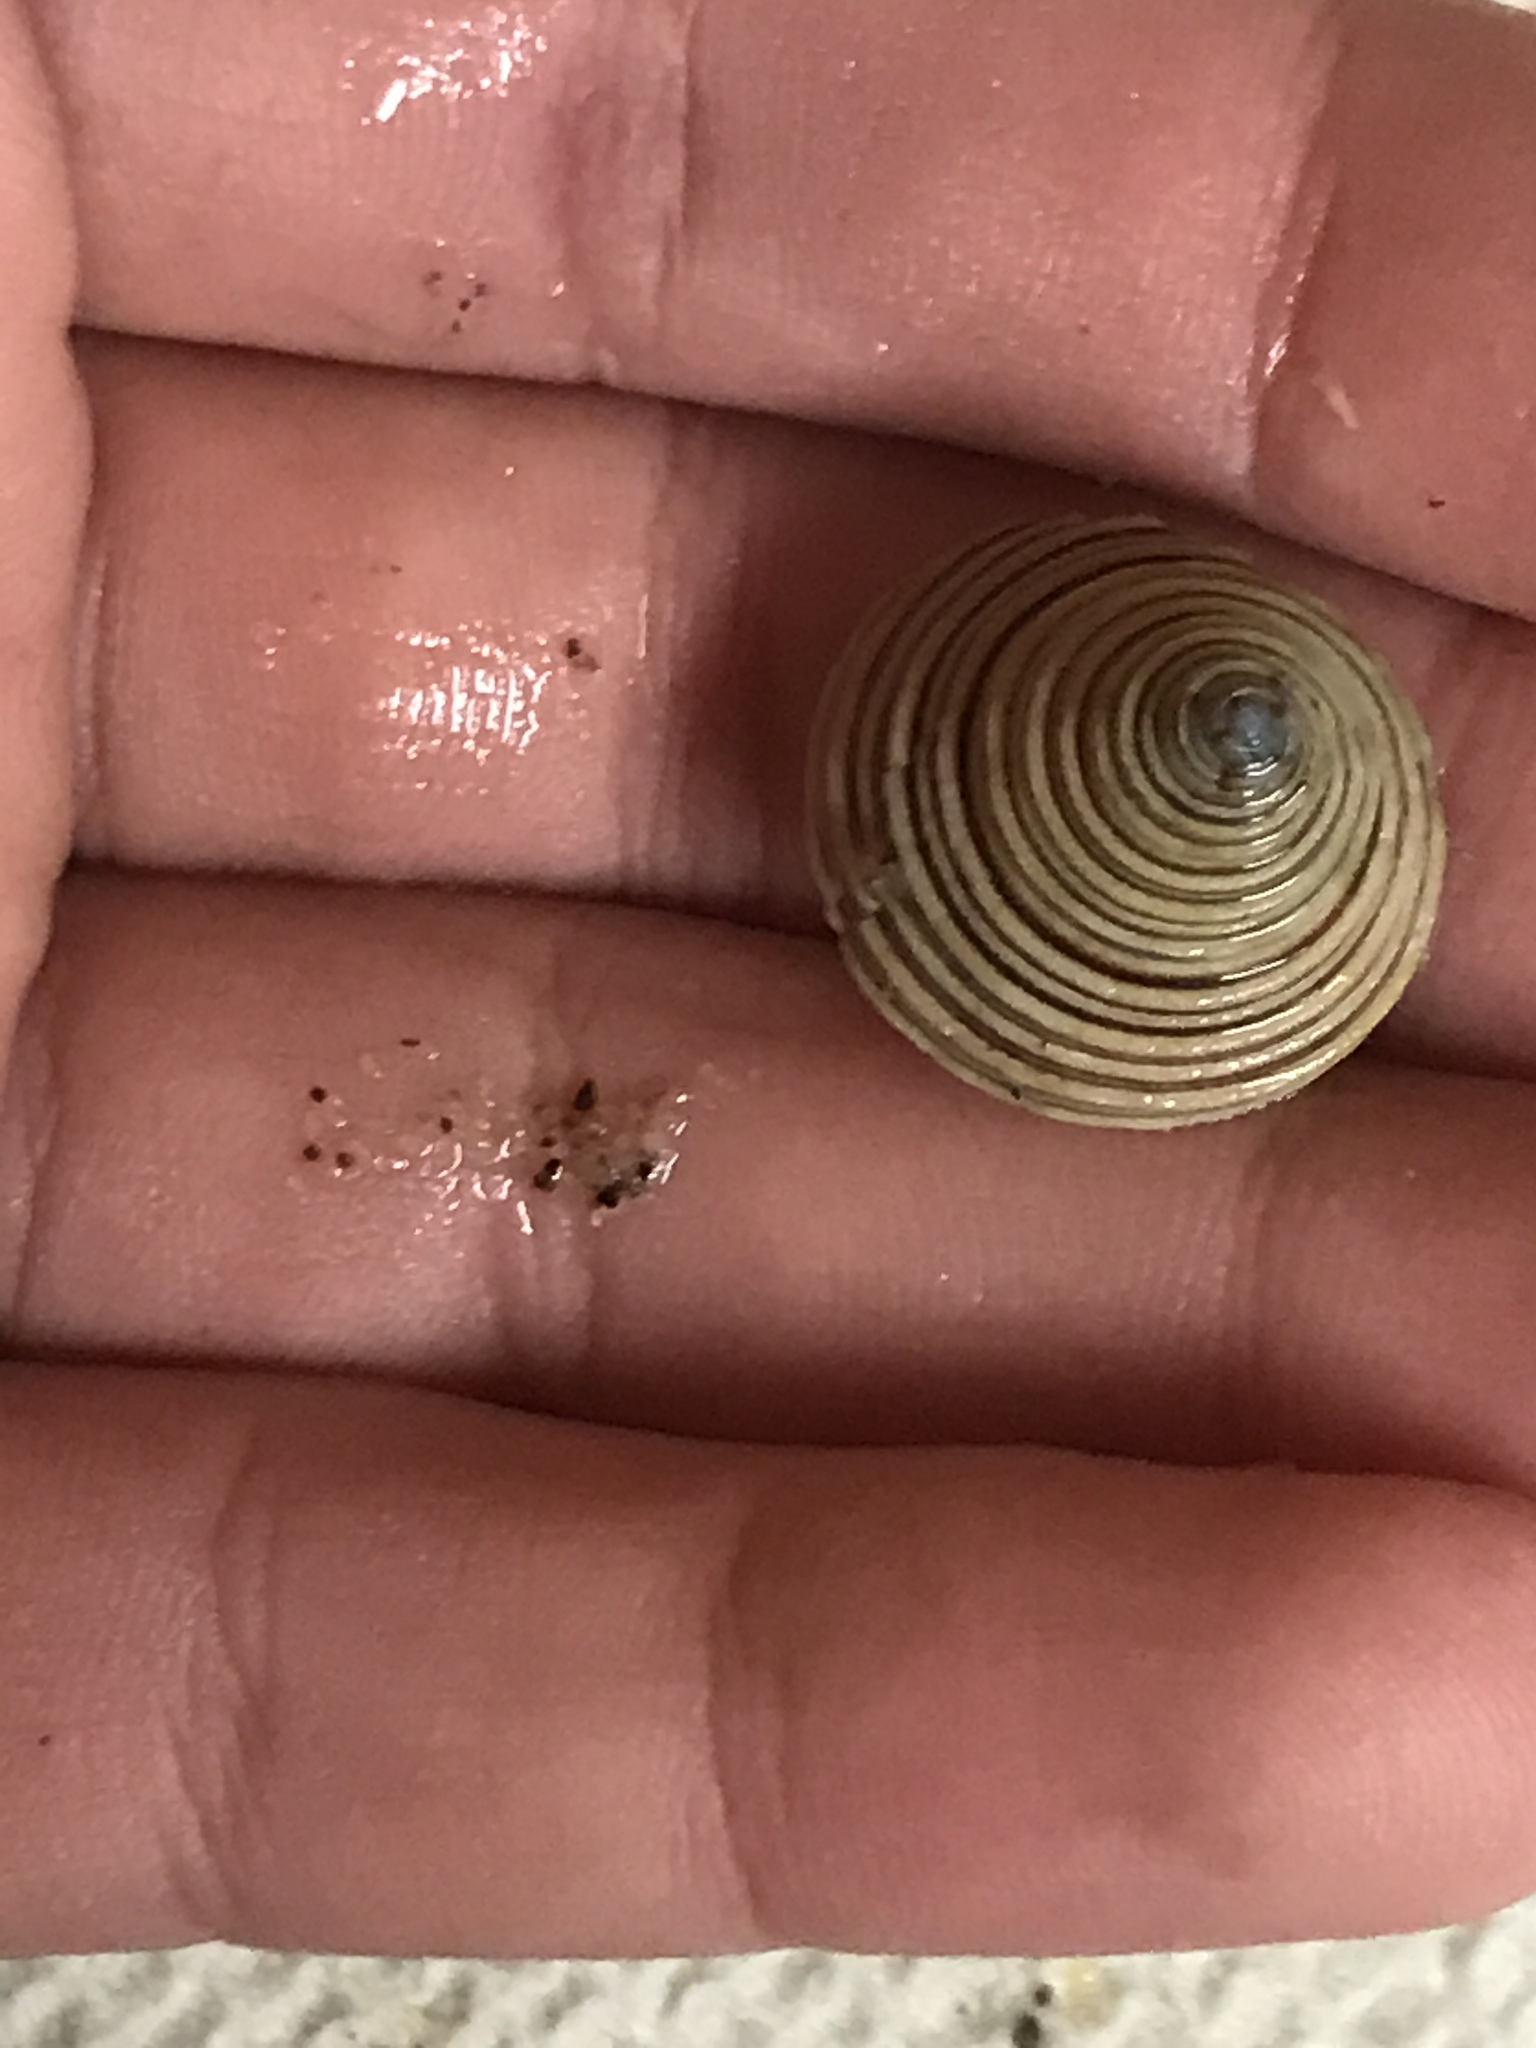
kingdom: Animalia
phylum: Mollusca
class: Gastropoda
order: Trochida
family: Calliostomatidae
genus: Calliostoma
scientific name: Calliostoma canaliculatum
